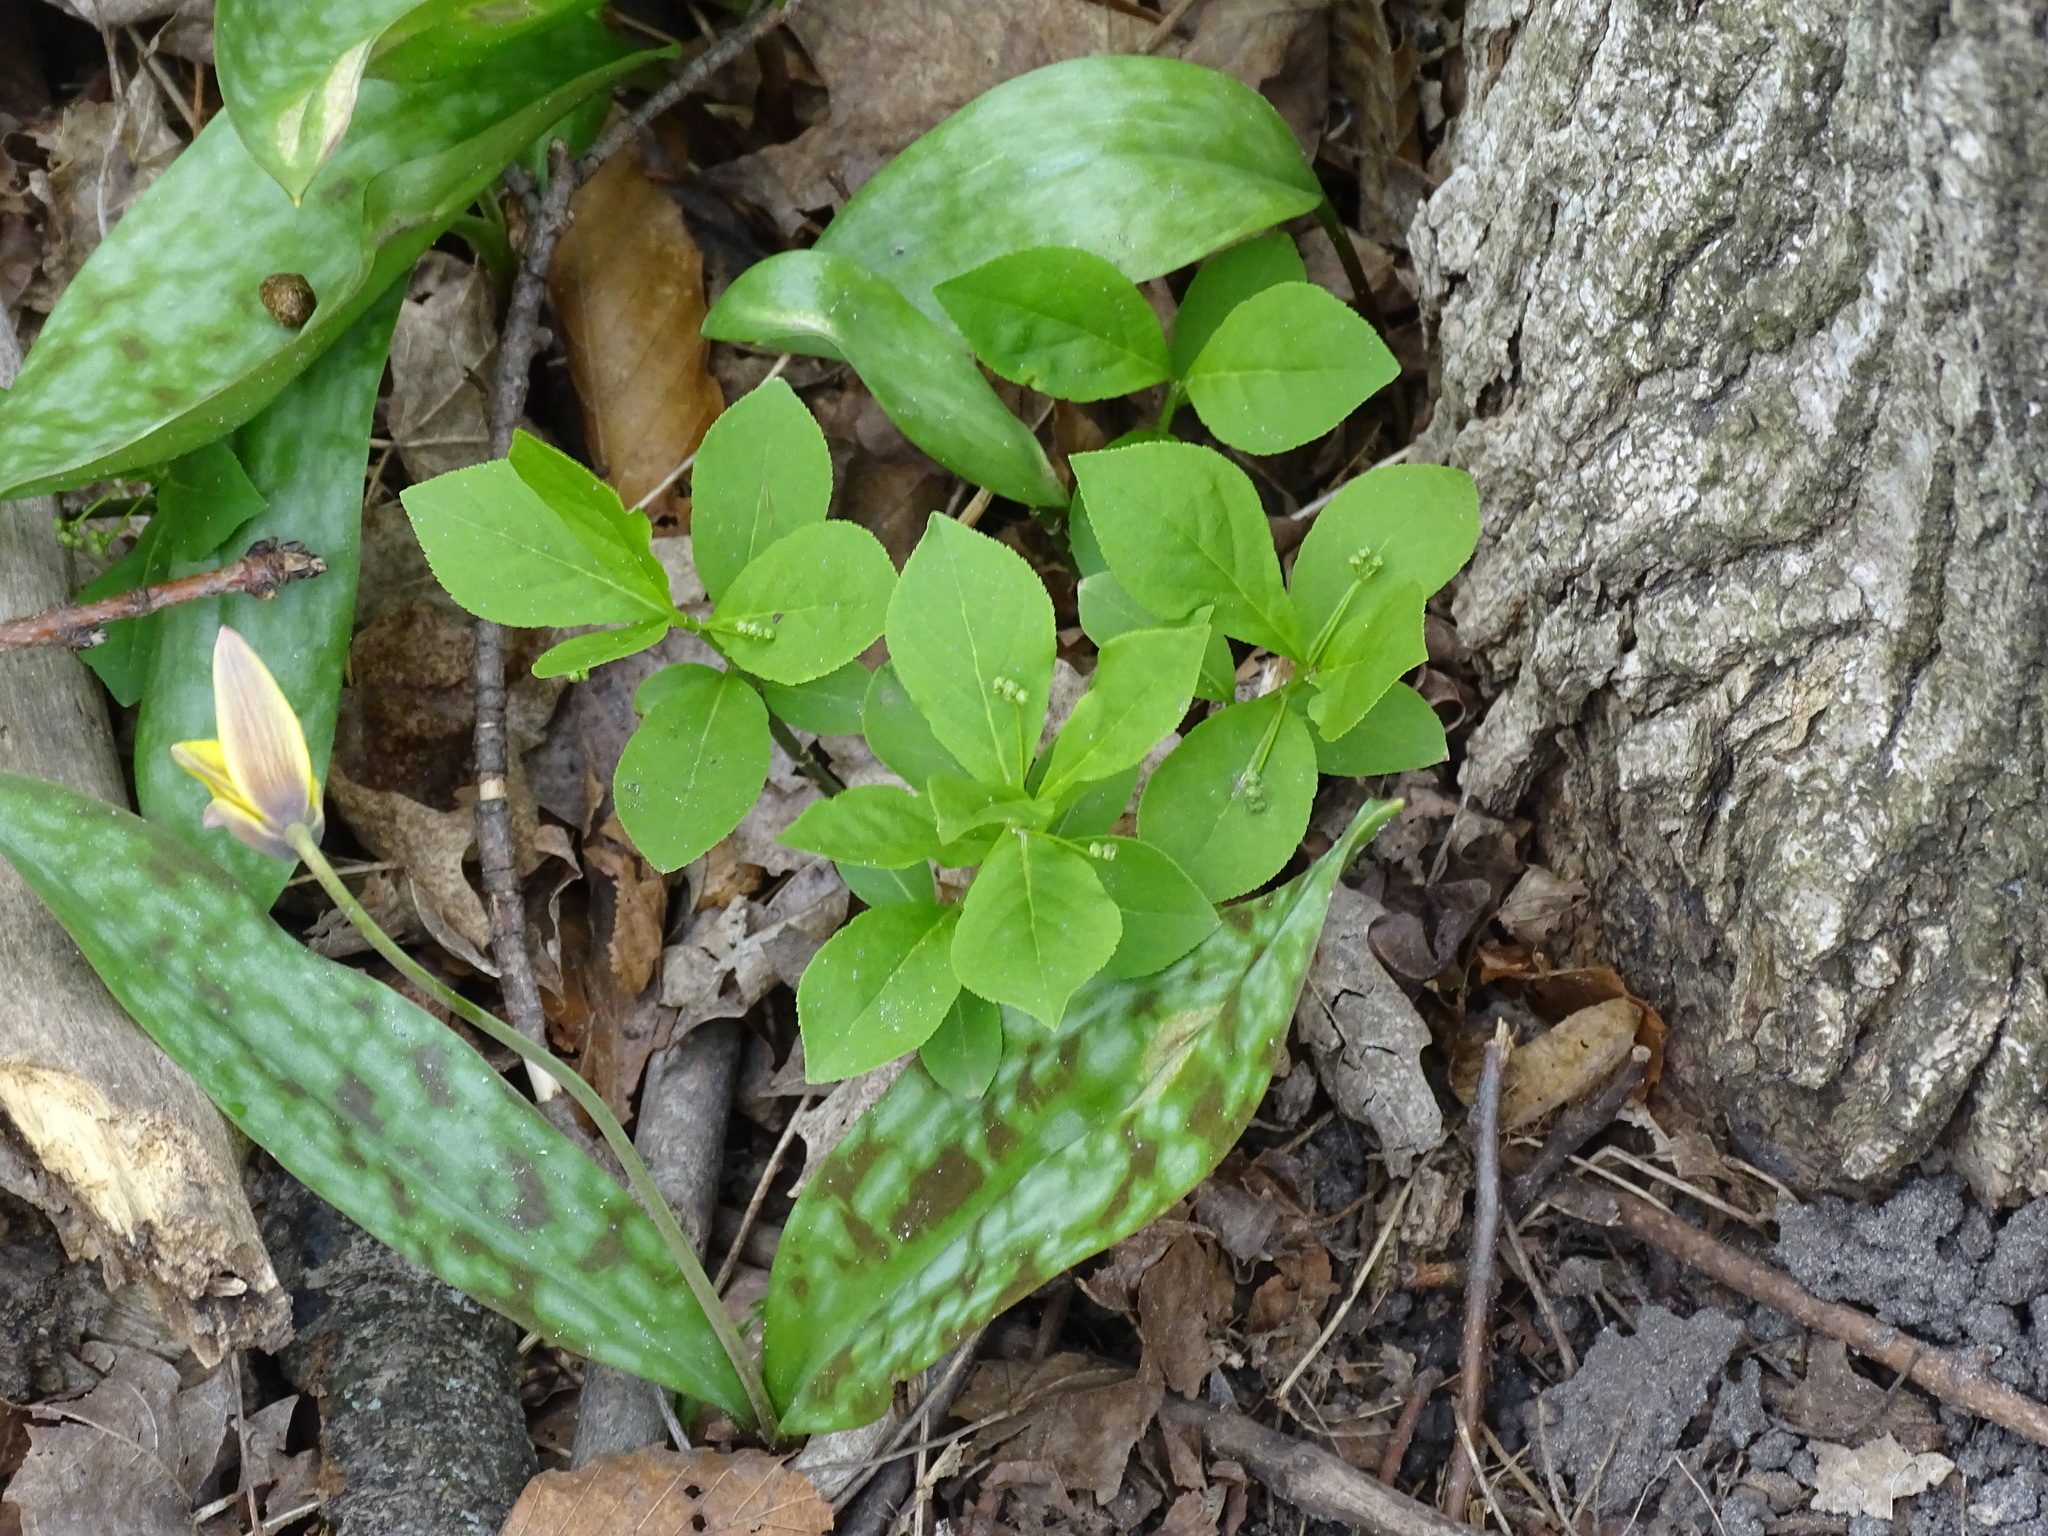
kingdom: Plantae
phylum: Tracheophyta
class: Magnoliopsida
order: Celastrales
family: Celastraceae
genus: Euonymus
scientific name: Euonymus obovatus
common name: Running strawberry-bush
